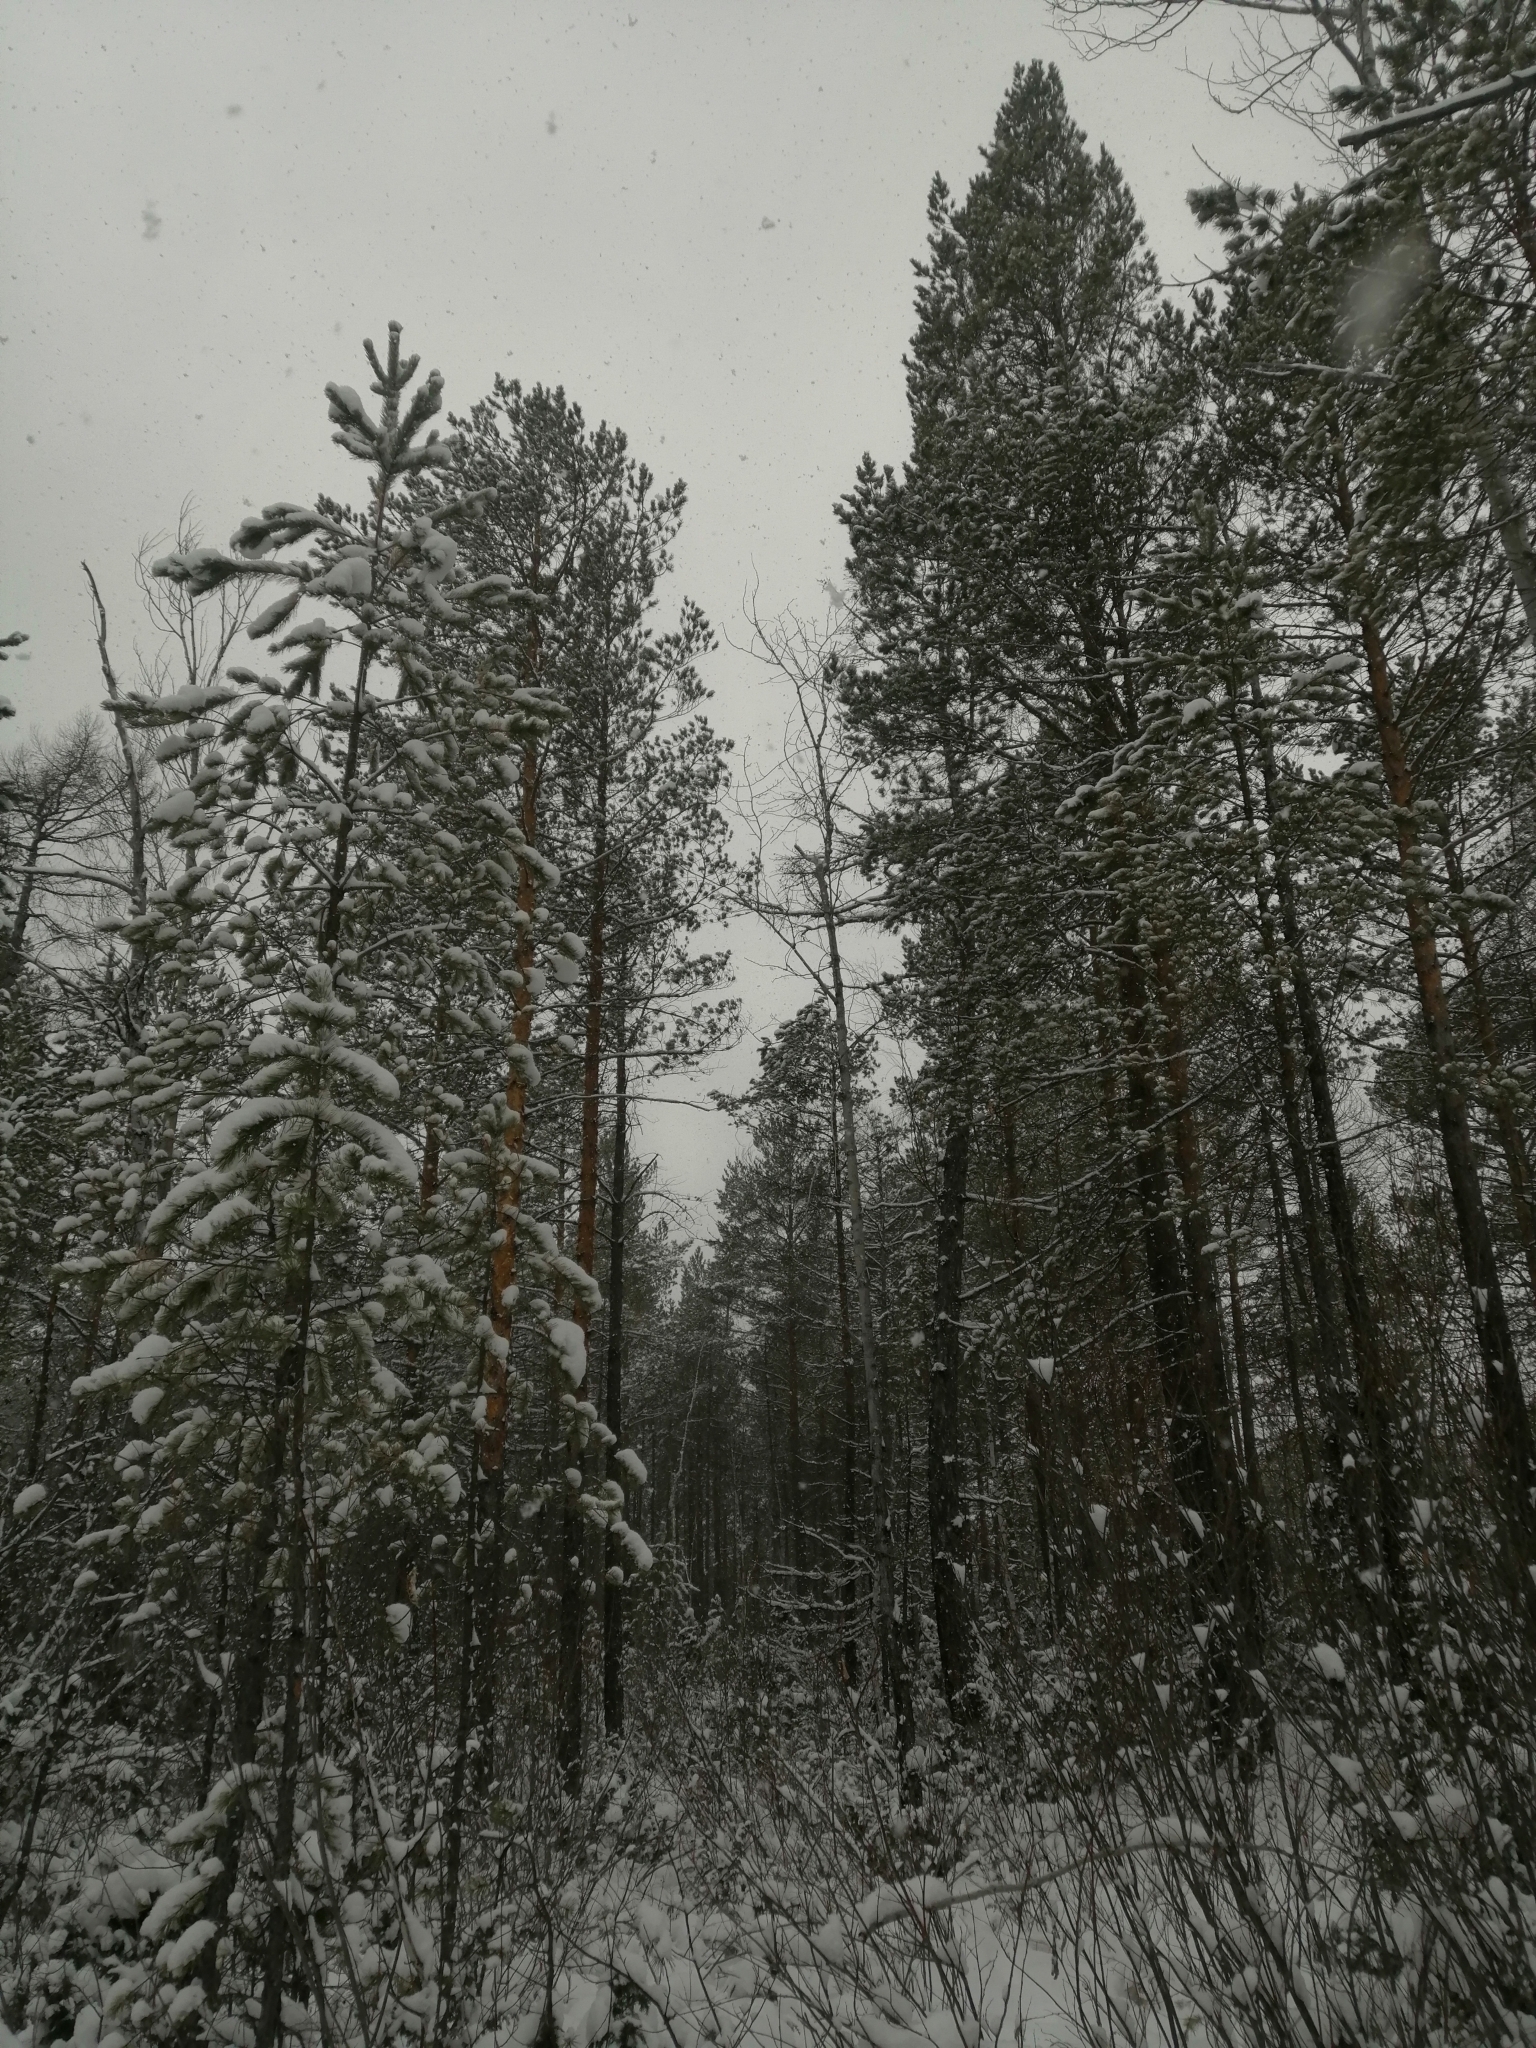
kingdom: Plantae
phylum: Tracheophyta
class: Pinopsida
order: Pinales
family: Pinaceae
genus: Pinus
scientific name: Pinus sylvestris
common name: Scots pine
